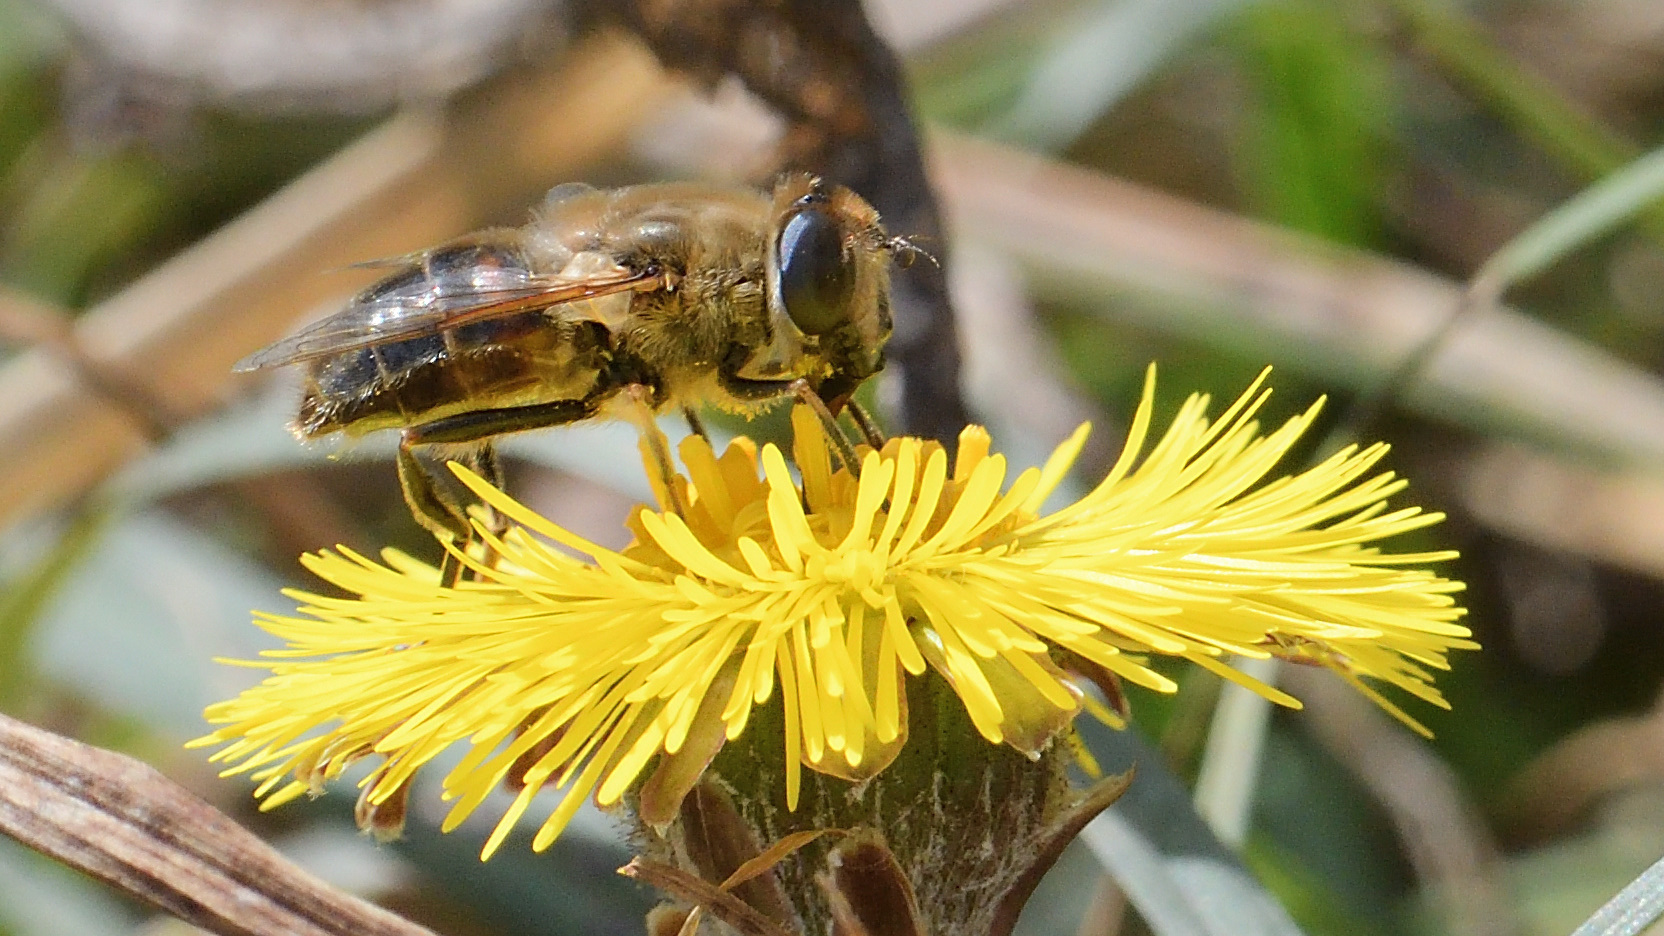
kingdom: Animalia
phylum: Arthropoda
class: Insecta
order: Diptera
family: Syrphidae
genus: Eristalis
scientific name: Eristalis tenax
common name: Drone fly
